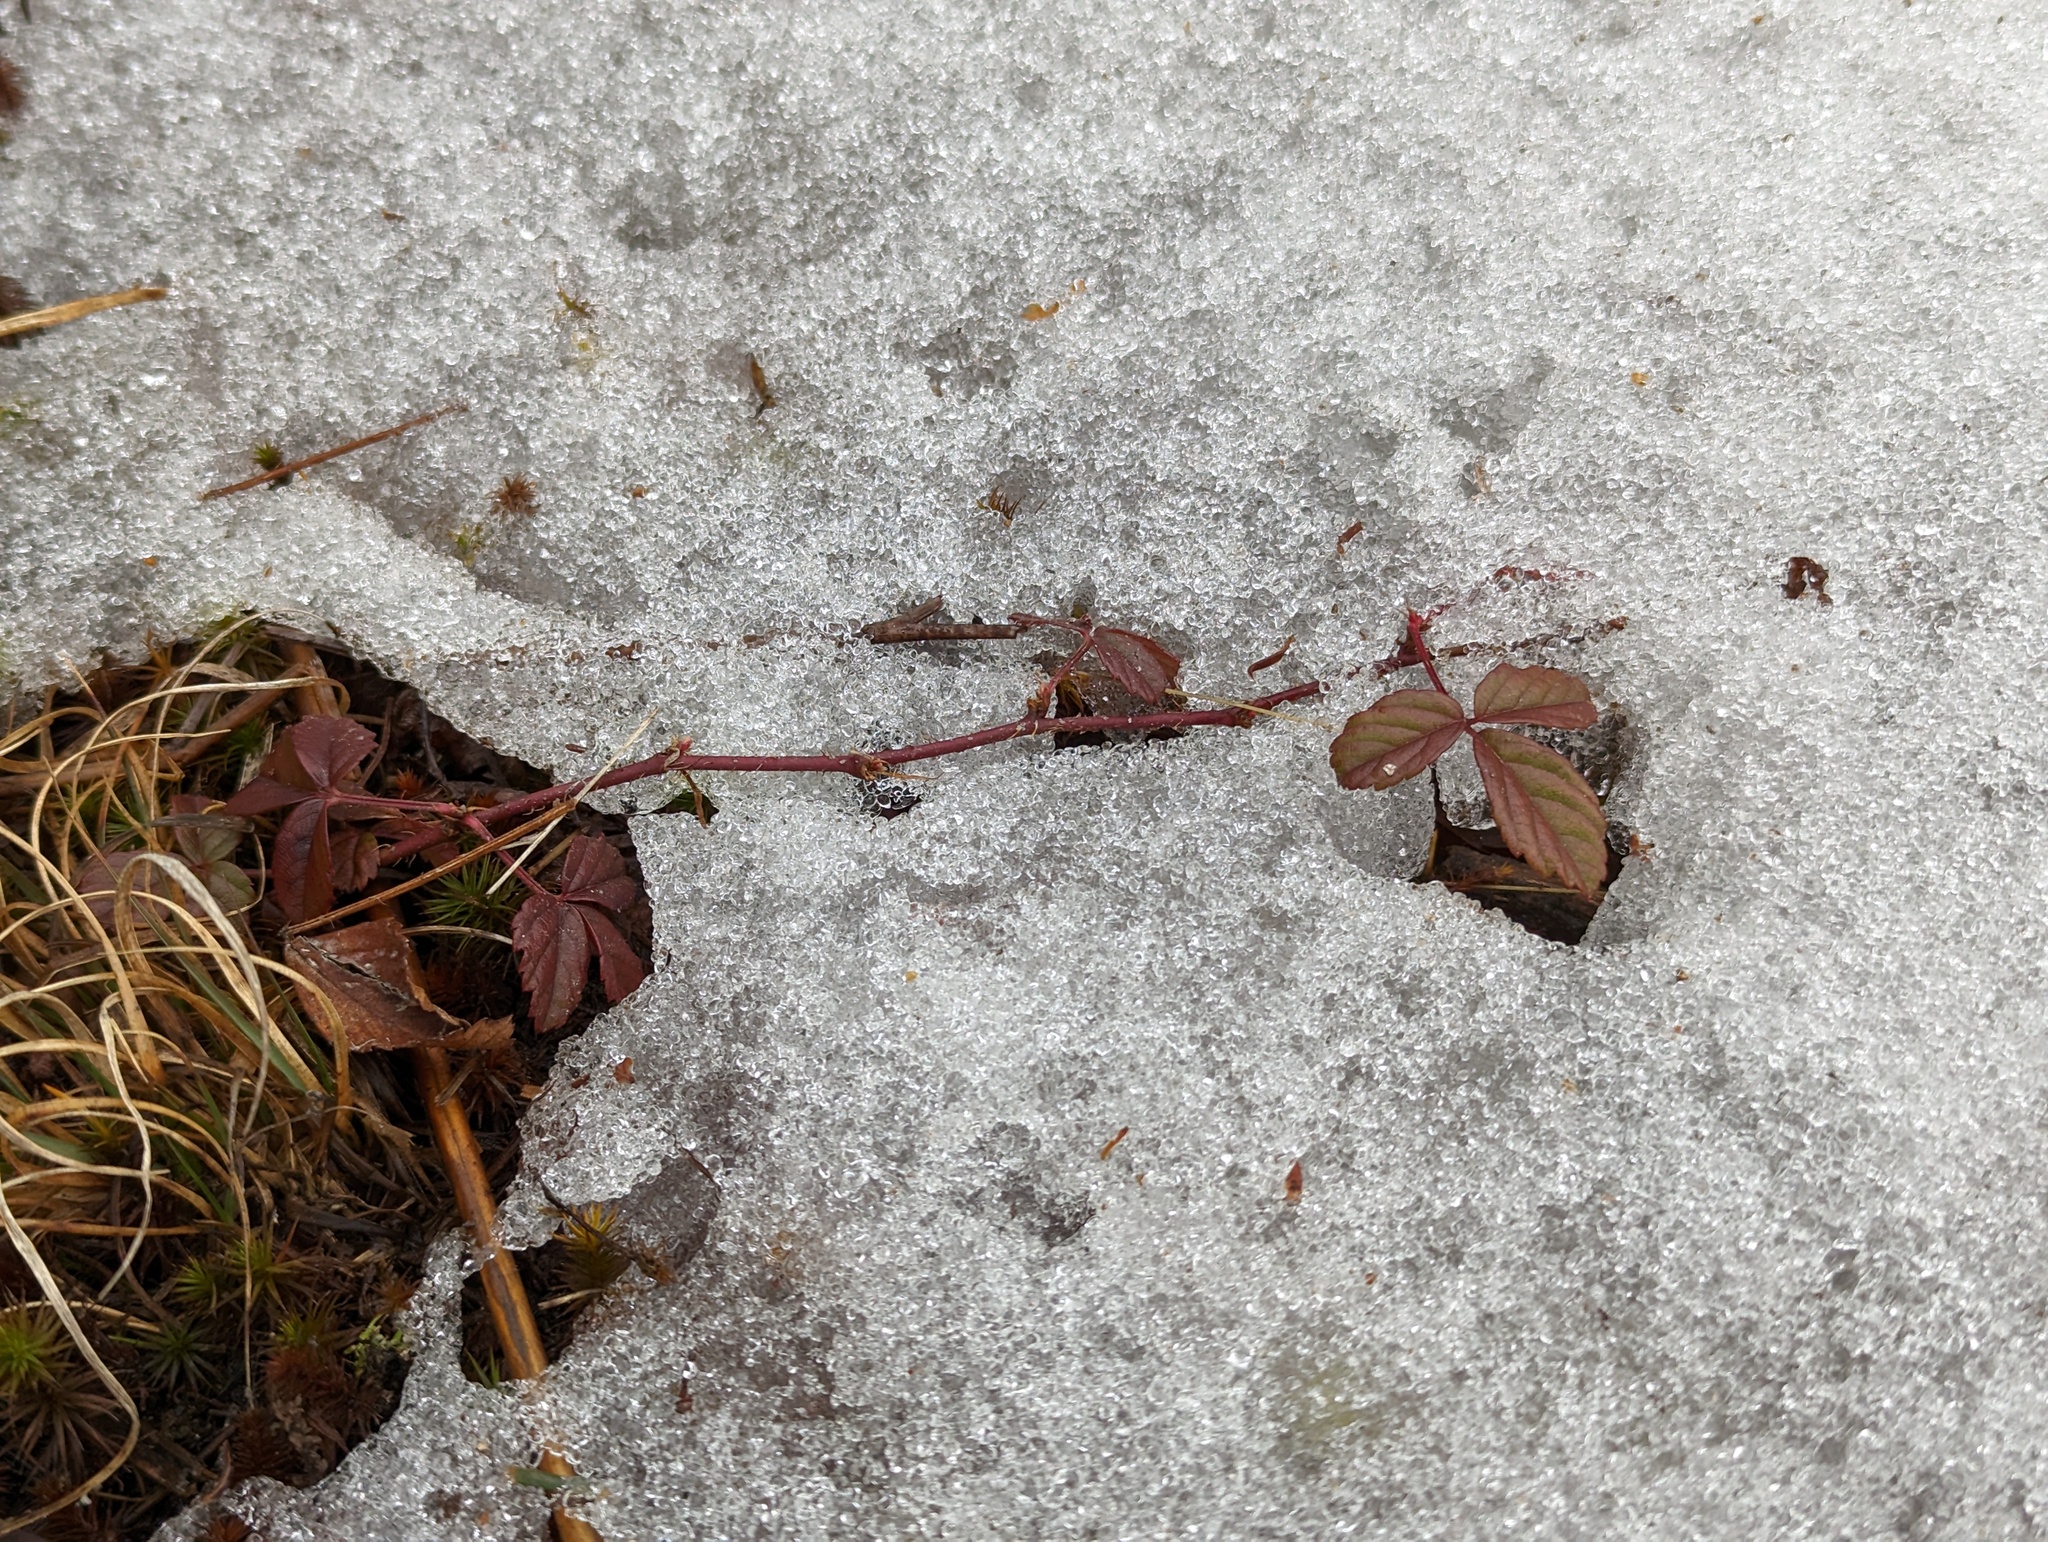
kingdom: Plantae
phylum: Tracheophyta
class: Magnoliopsida
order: Rosales
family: Rosaceae
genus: Rubus
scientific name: Rubus hispidus
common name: Running blackberry
